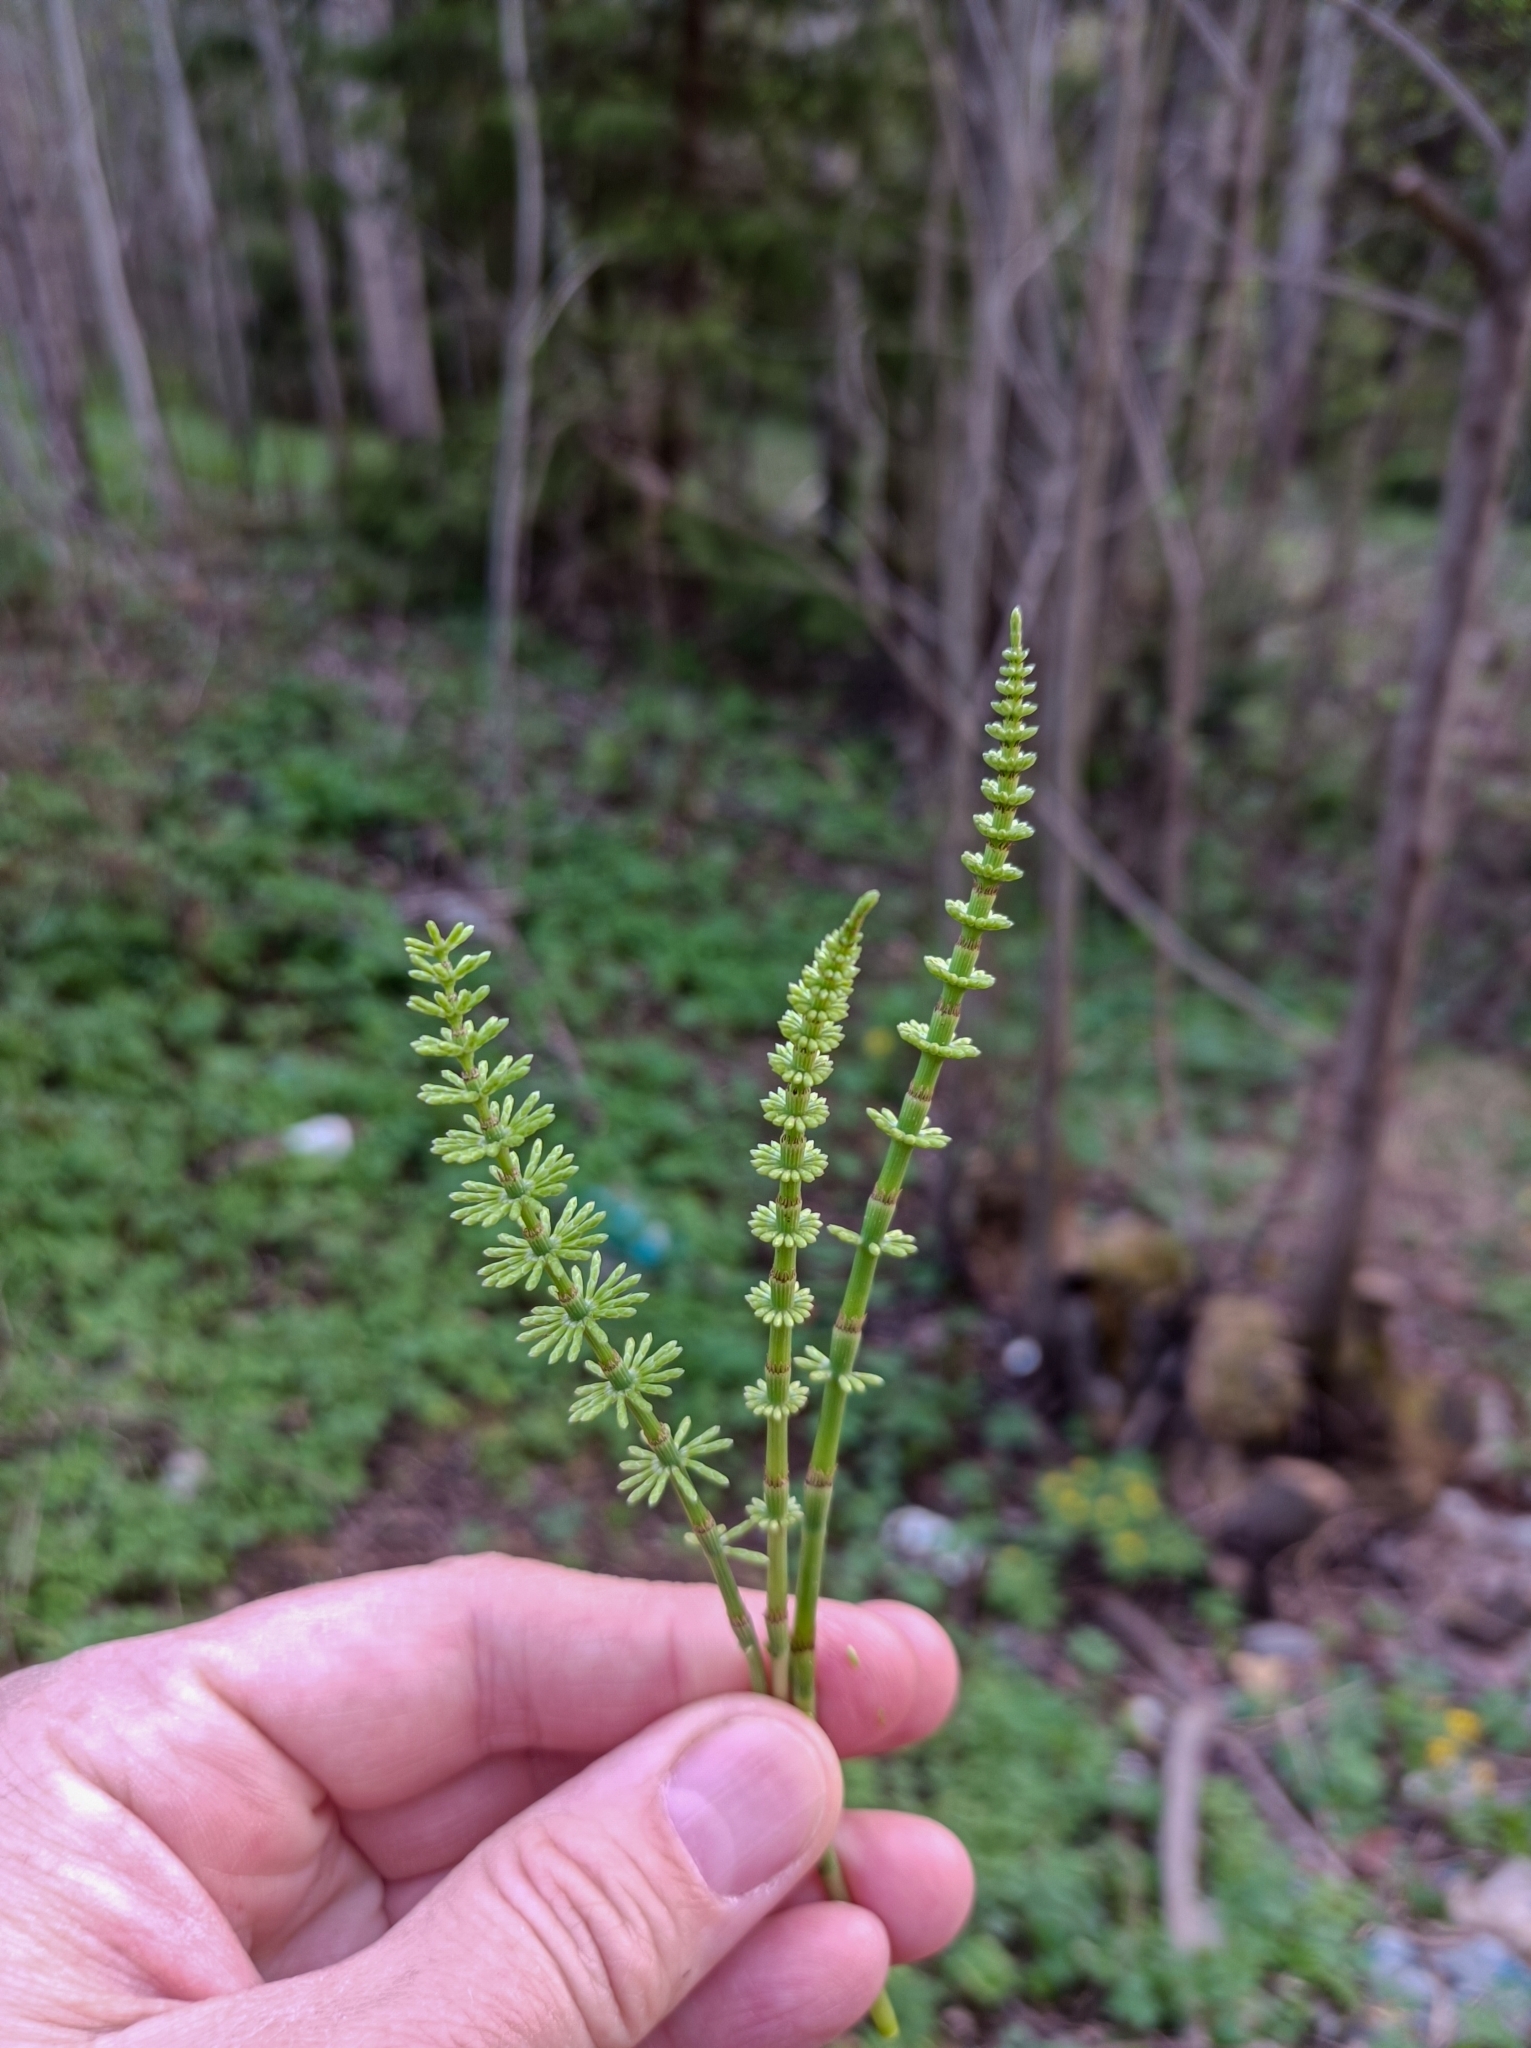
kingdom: Plantae
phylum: Tracheophyta
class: Polypodiopsida
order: Equisetales
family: Equisetaceae
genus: Equisetum
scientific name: Equisetum pratense
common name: Meadow horsetail
